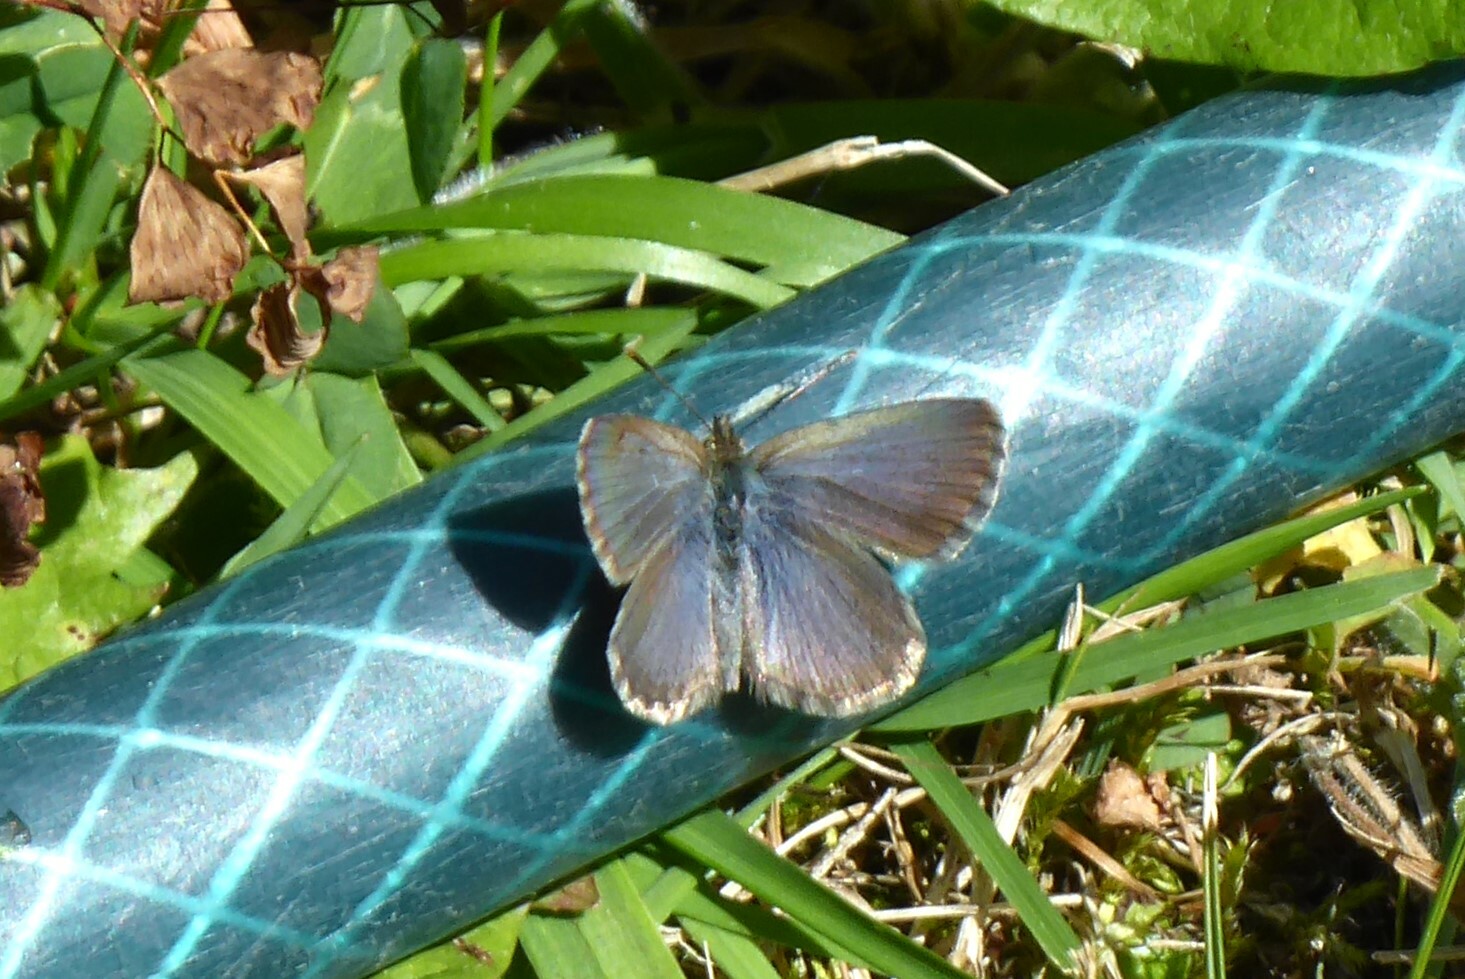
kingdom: Animalia
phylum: Arthropoda
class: Insecta
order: Lepidoptera
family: Lycaenidae
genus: Zizina
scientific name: Zizina oxleyi
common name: Southern blue
